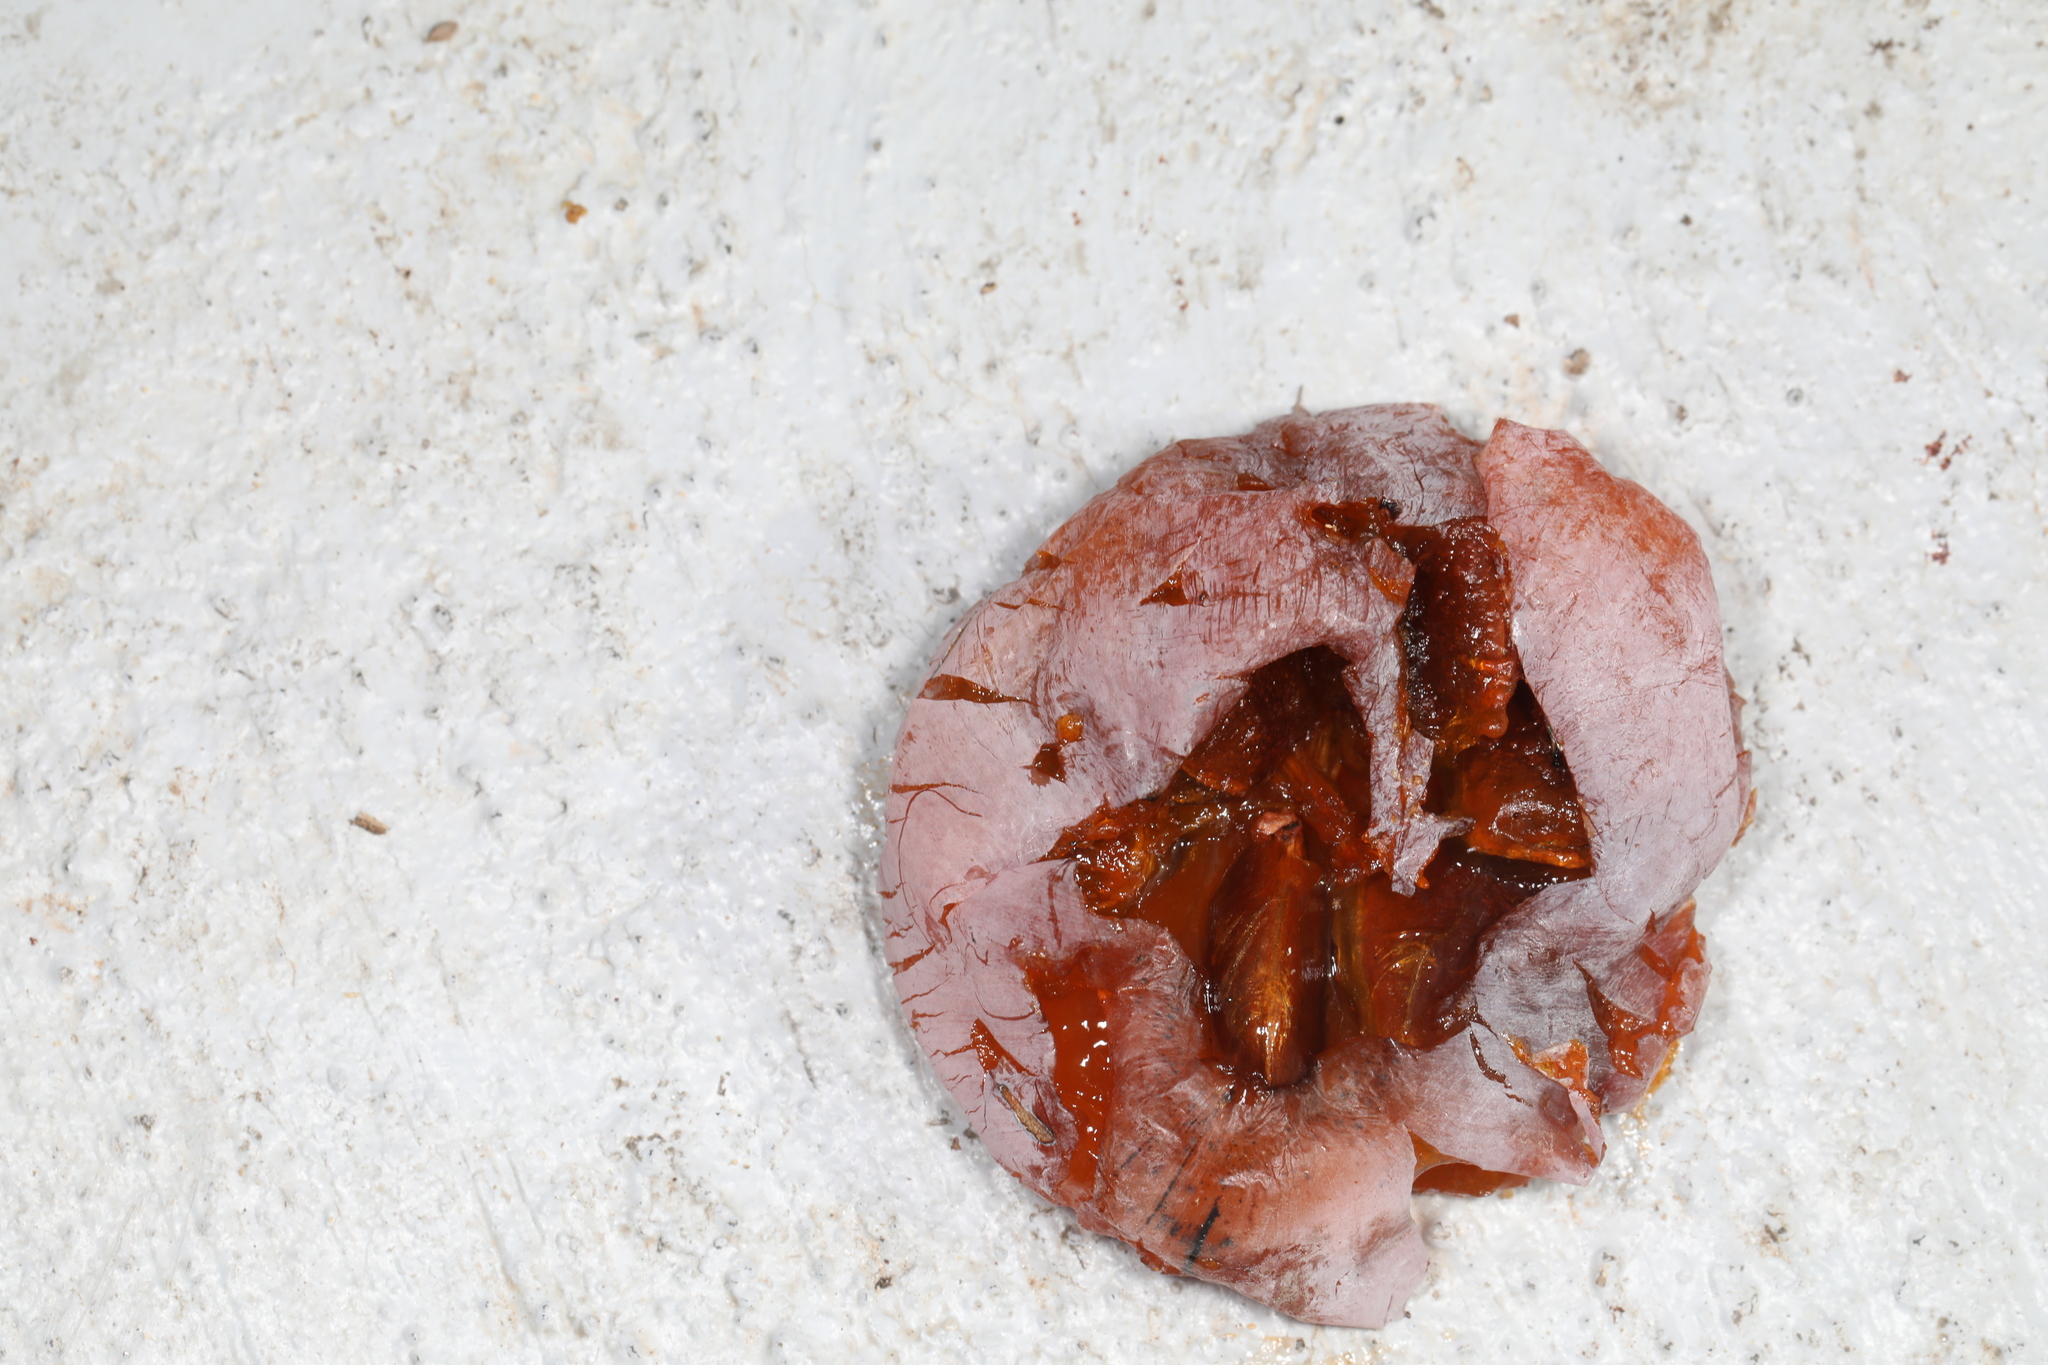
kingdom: Plantae
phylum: Tracheophyta
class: Magnoliopsida
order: Ericales
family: Ebenaceae
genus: Diospyros
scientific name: Diospyros virginiana
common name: Persimmon
